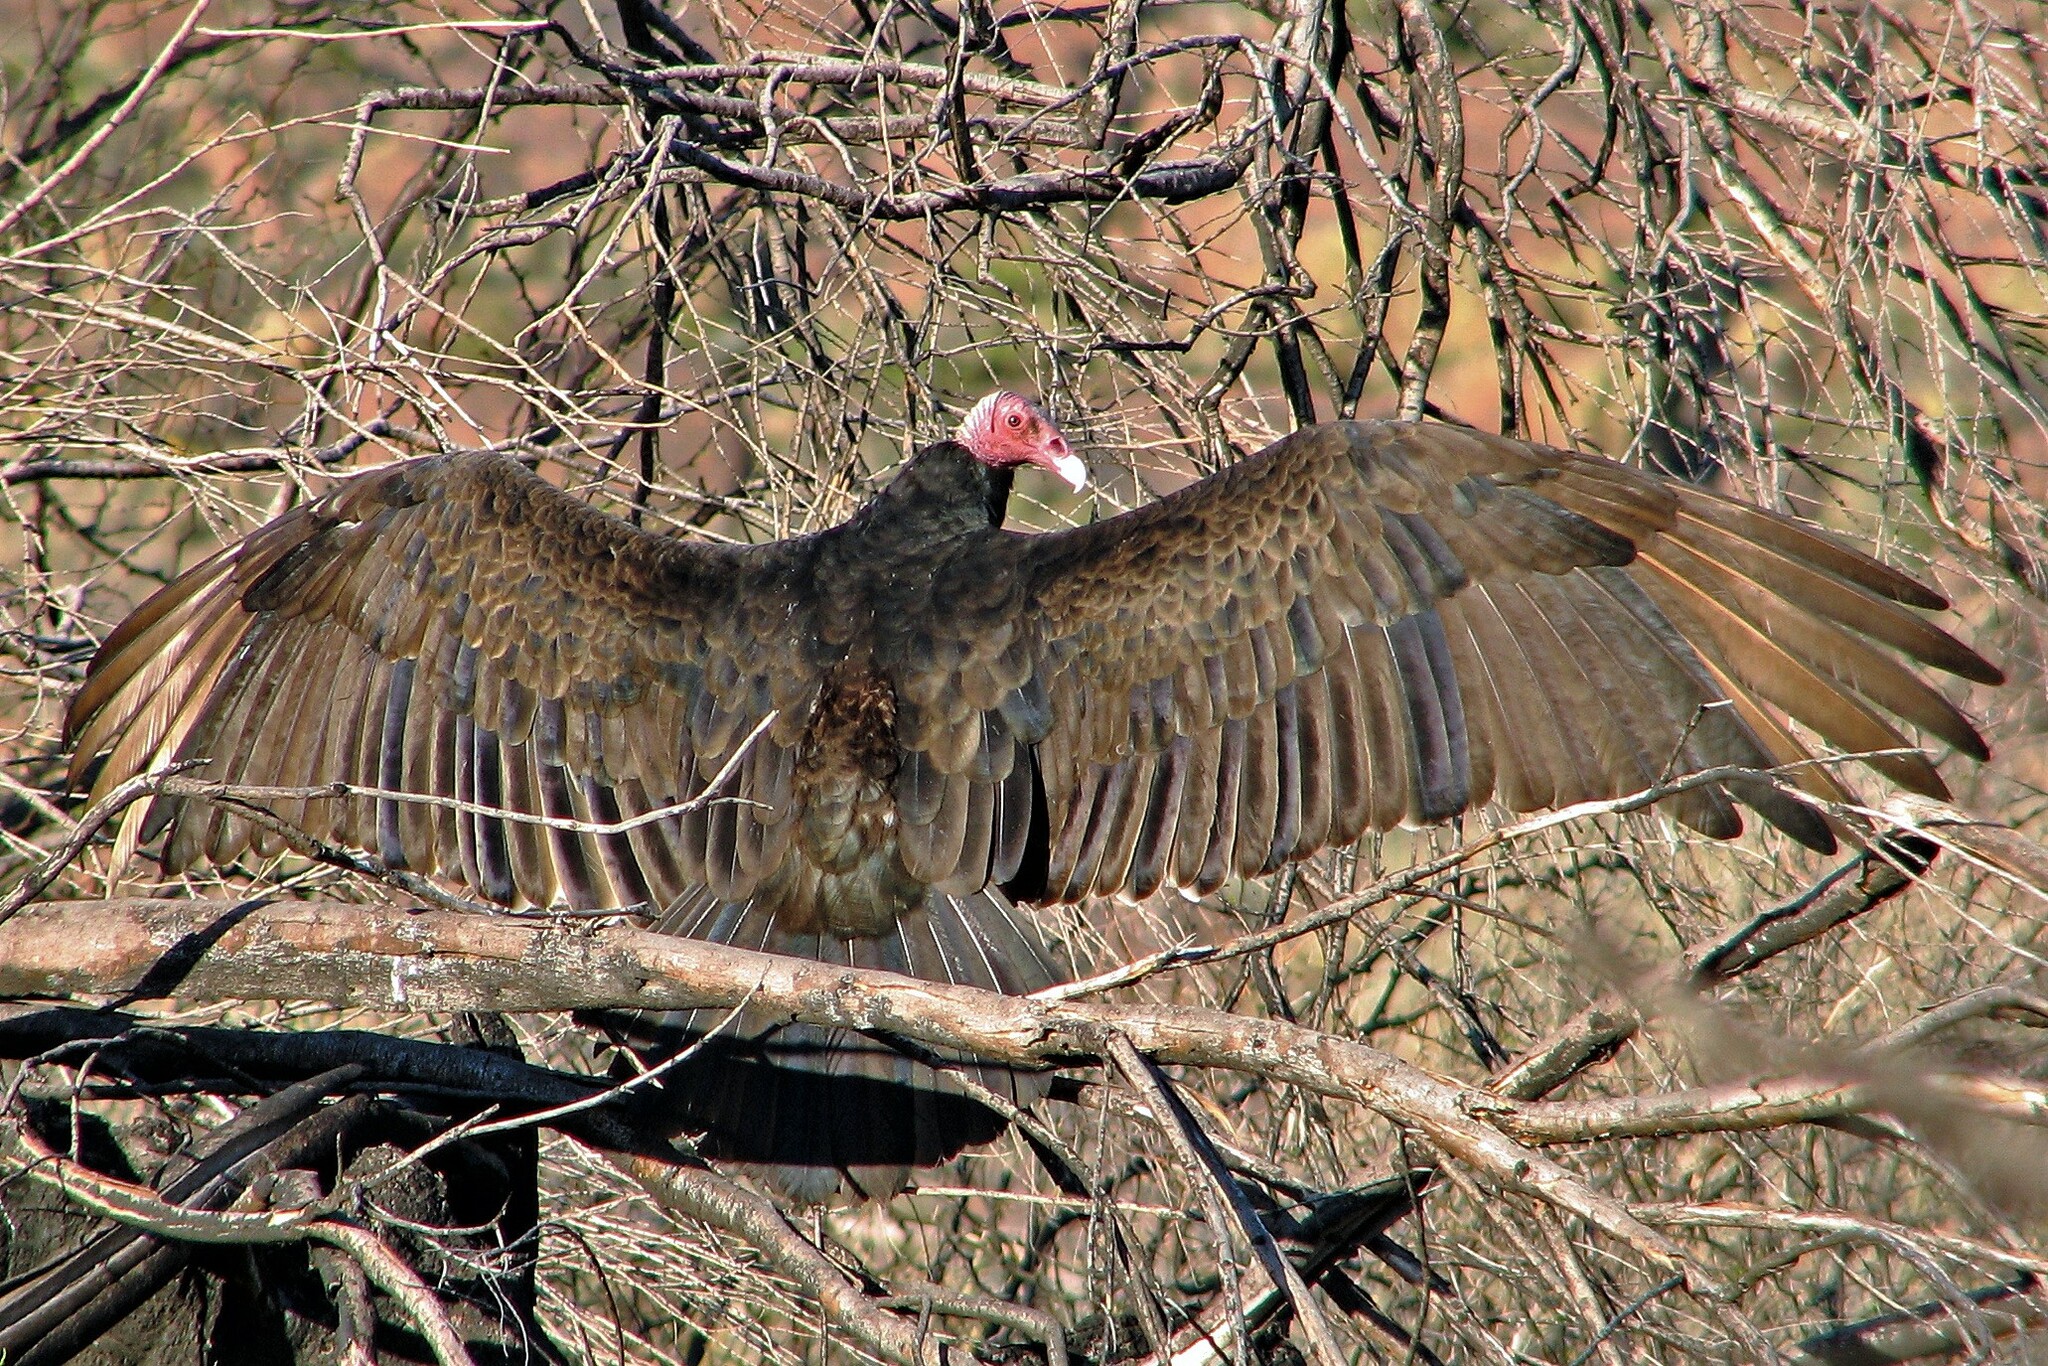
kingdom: Animalia
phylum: Chordata
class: Aves
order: Accipitriformes
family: Cathartidae
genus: Cathartes
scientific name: Cathartes aura
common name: Turkey vulture
